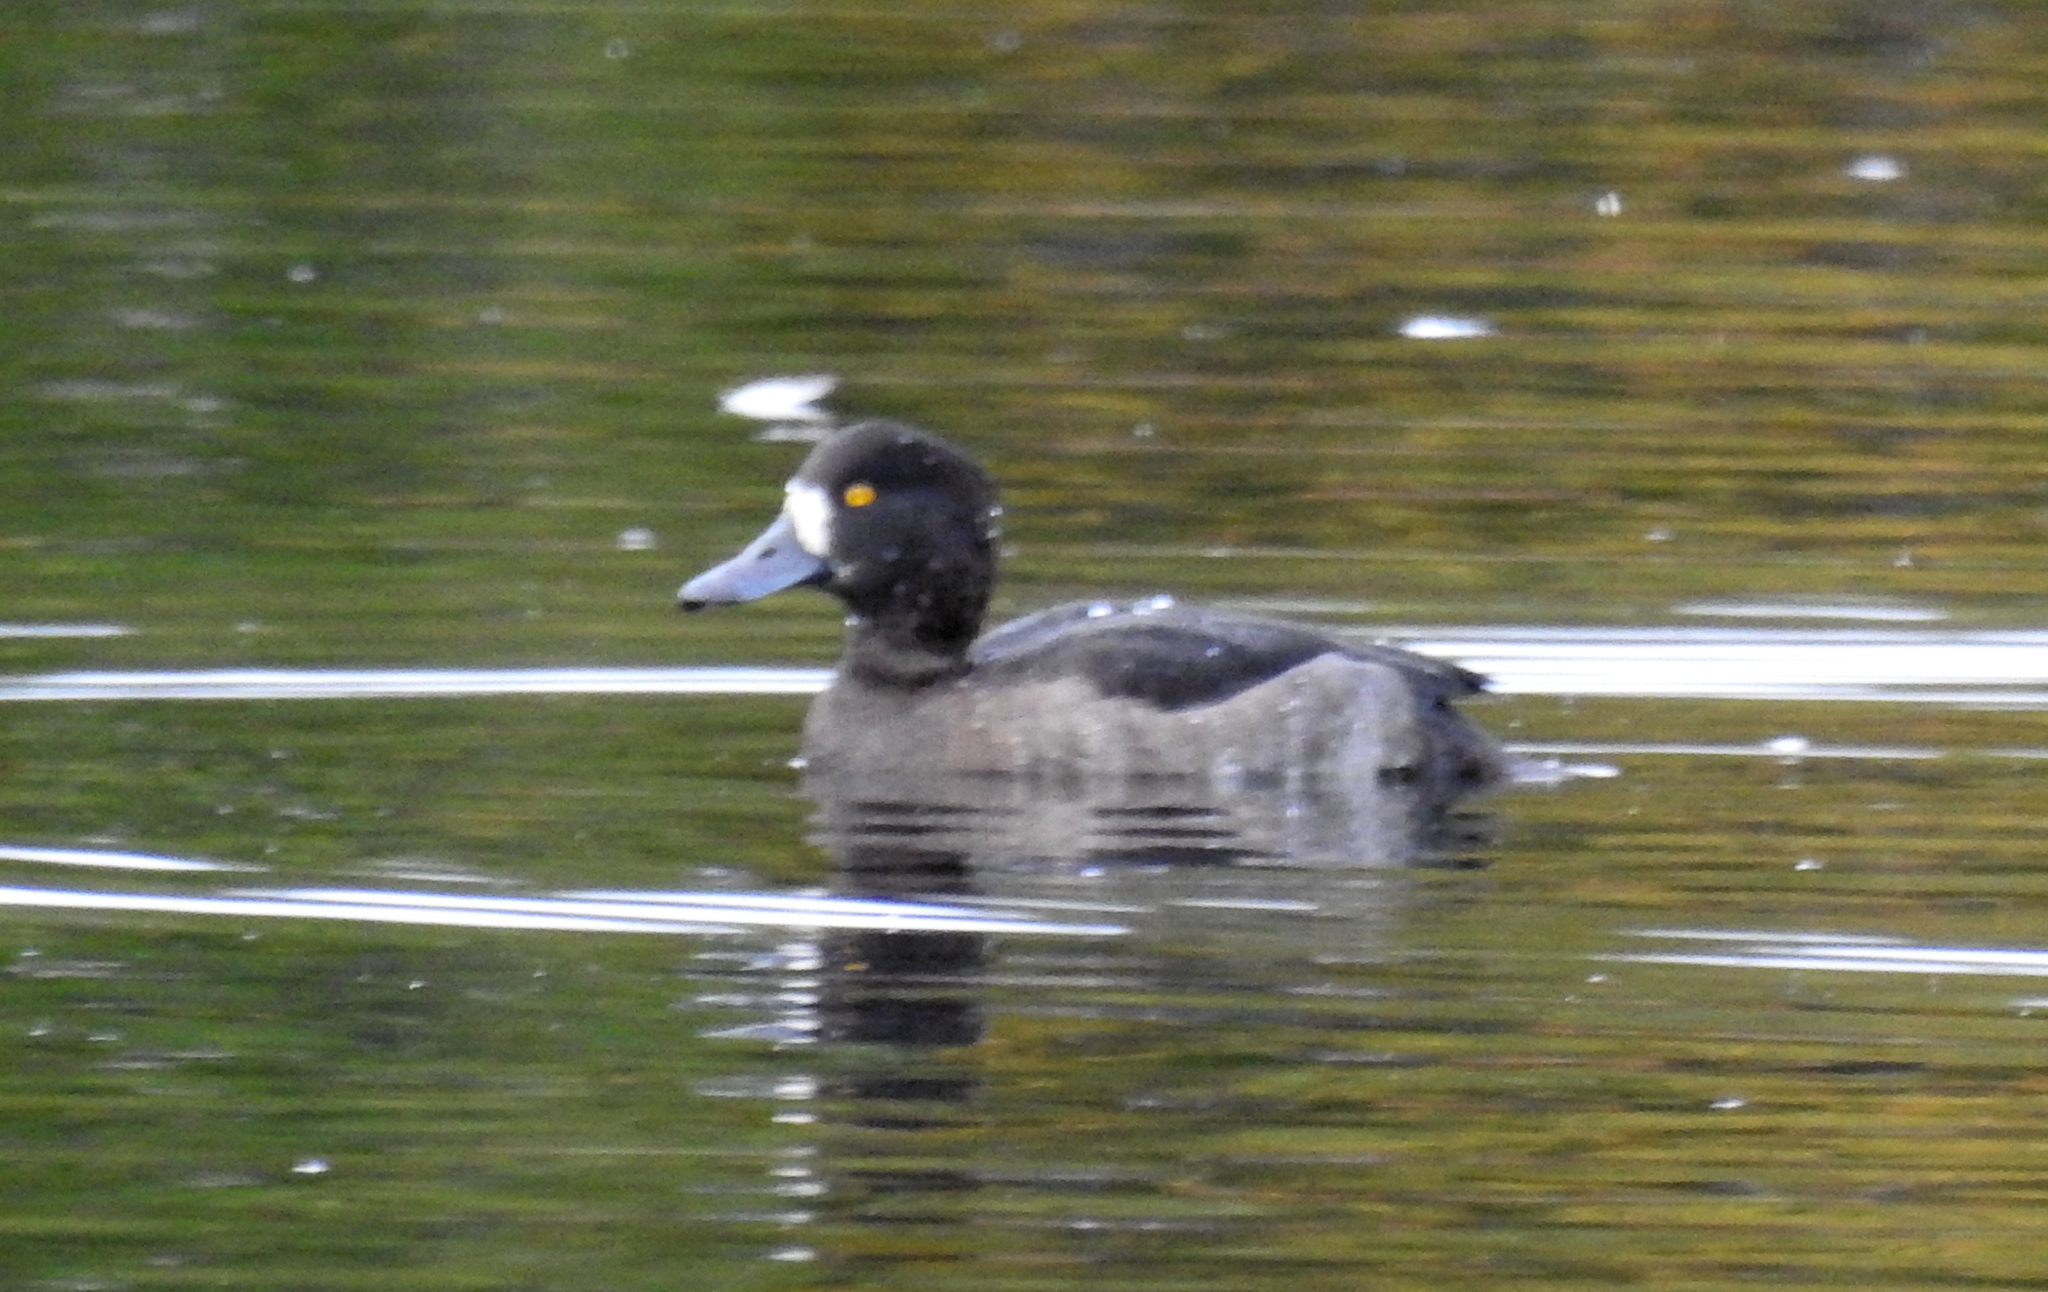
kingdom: Animalia
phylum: Chordata
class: Aves
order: Anseriformes
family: Anatidae
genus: Aythya
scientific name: Aythya fuligula
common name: Tufted duck
